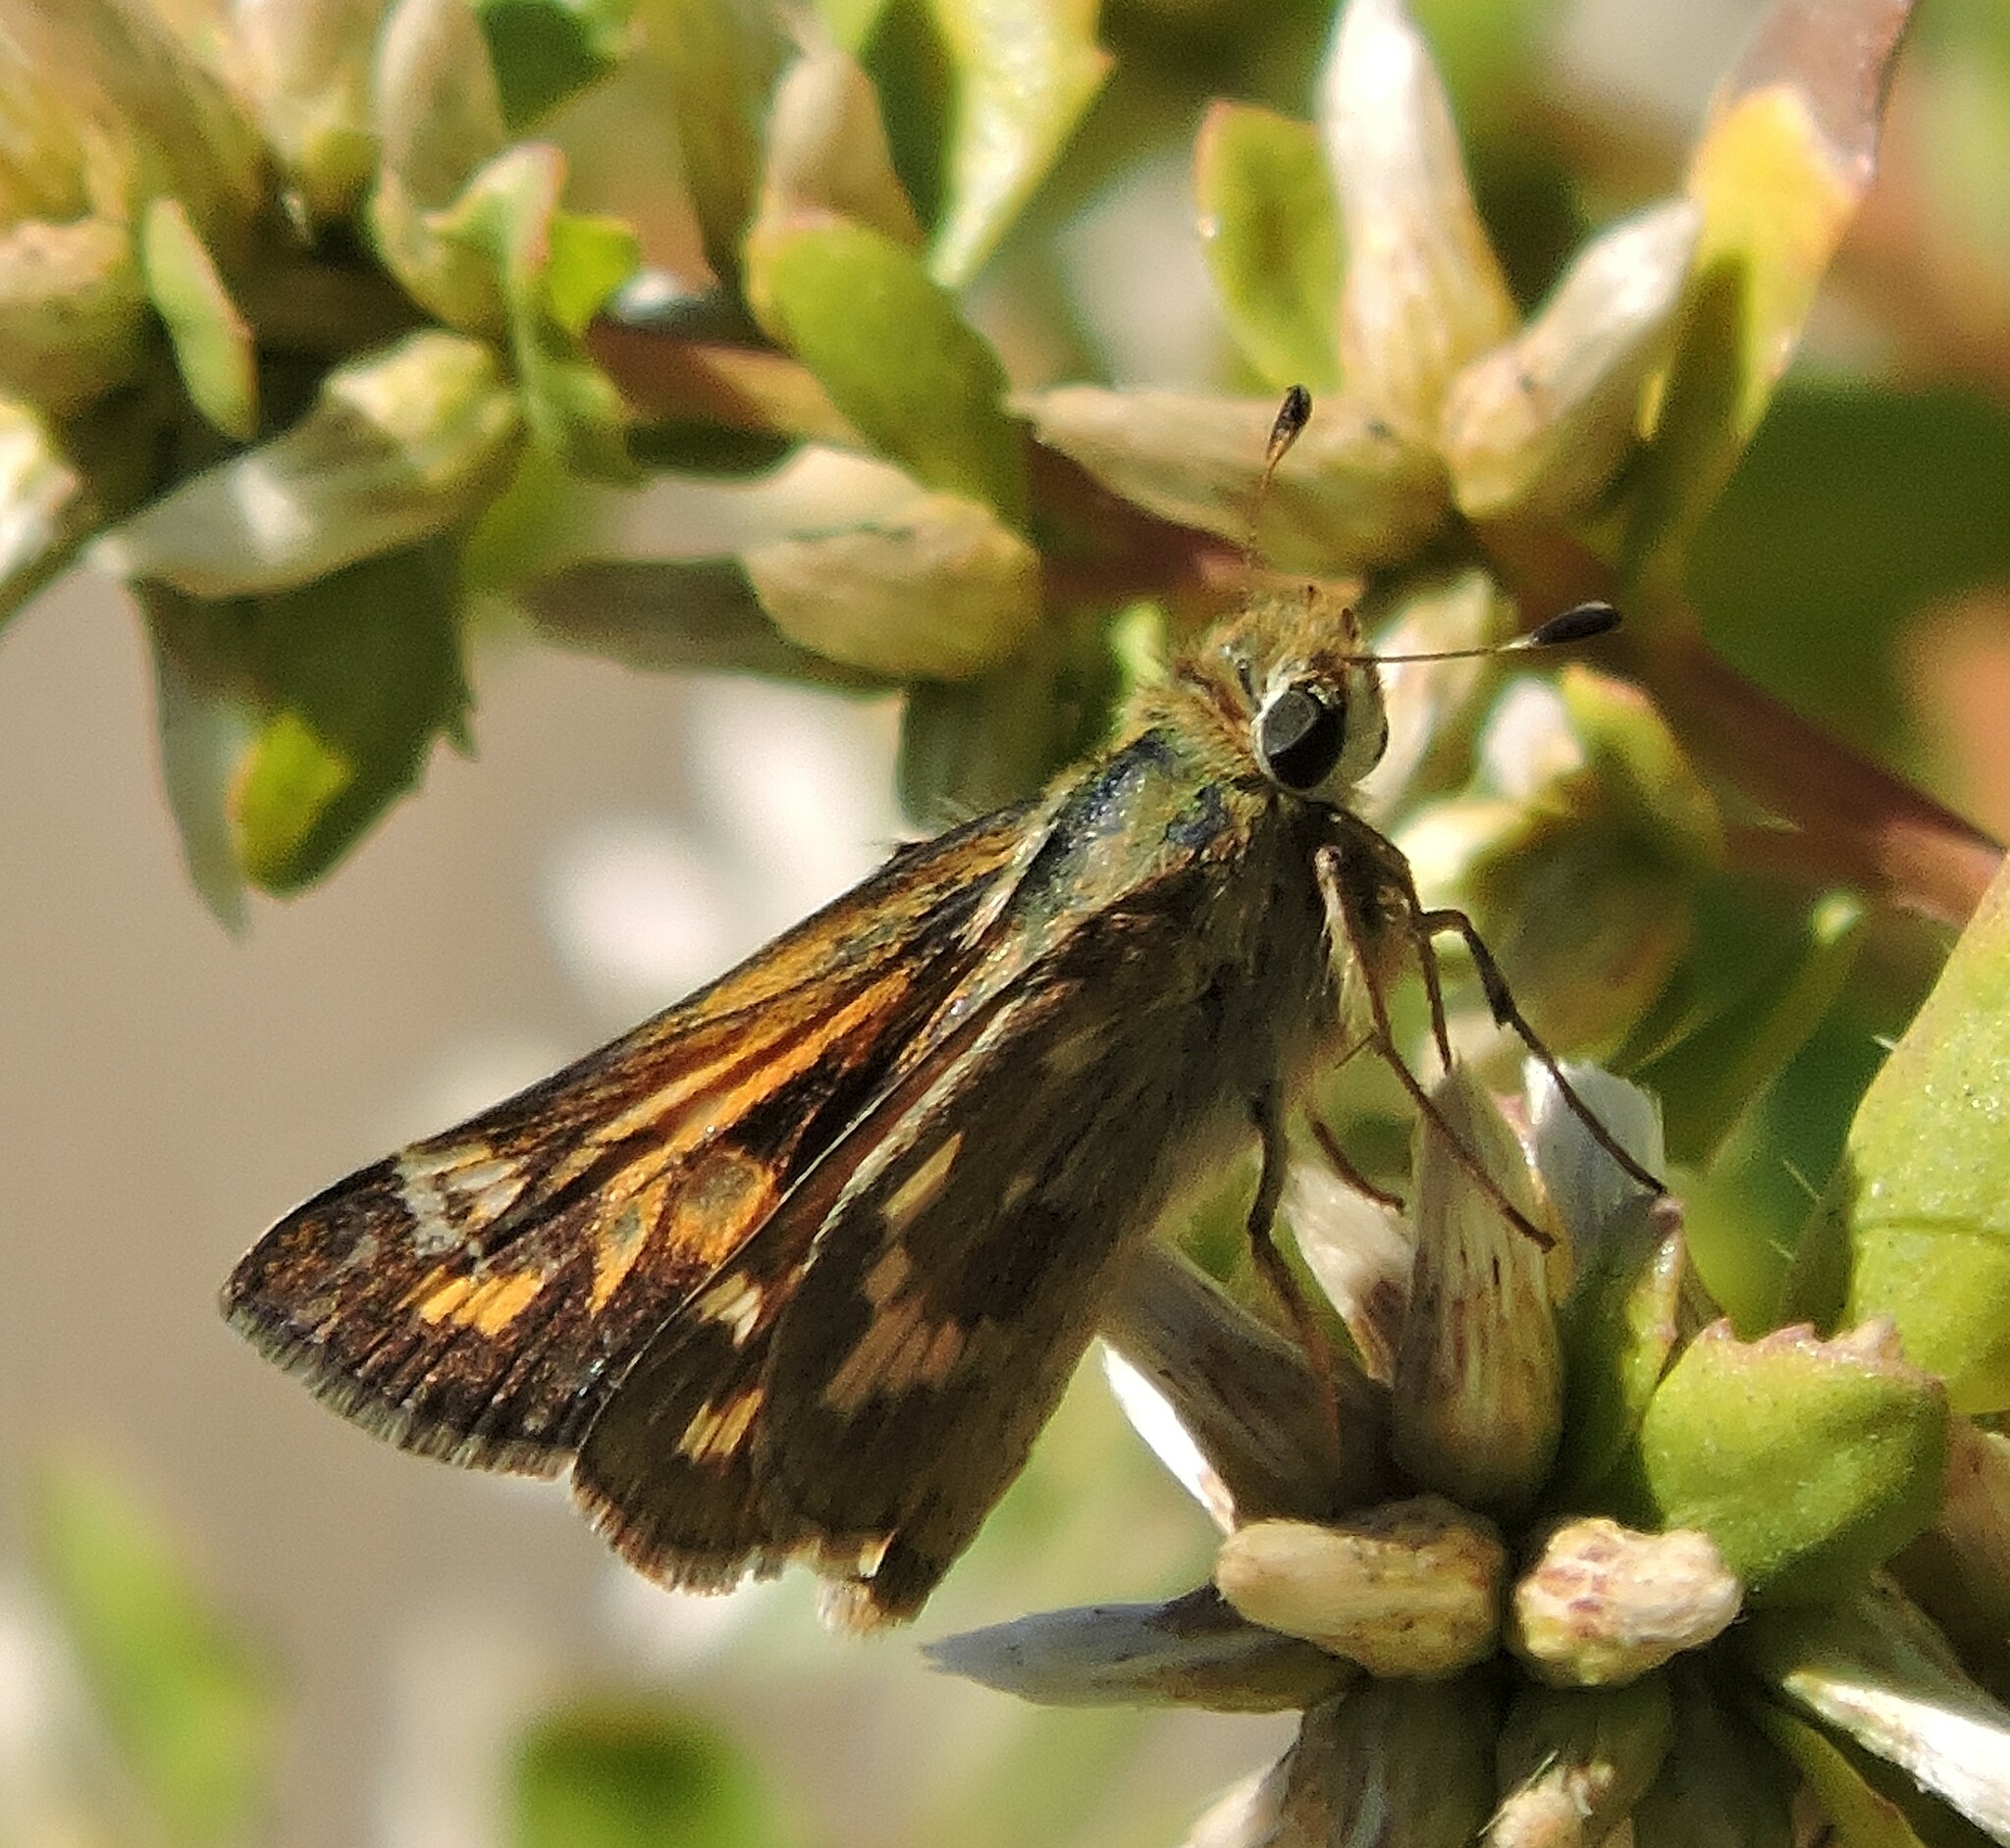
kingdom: Animalia
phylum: Arthropoda
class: Insecta
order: Lepidoptera
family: Hesperiidae
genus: Atalopedes
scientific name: Atalopedes campestris
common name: Sachem
